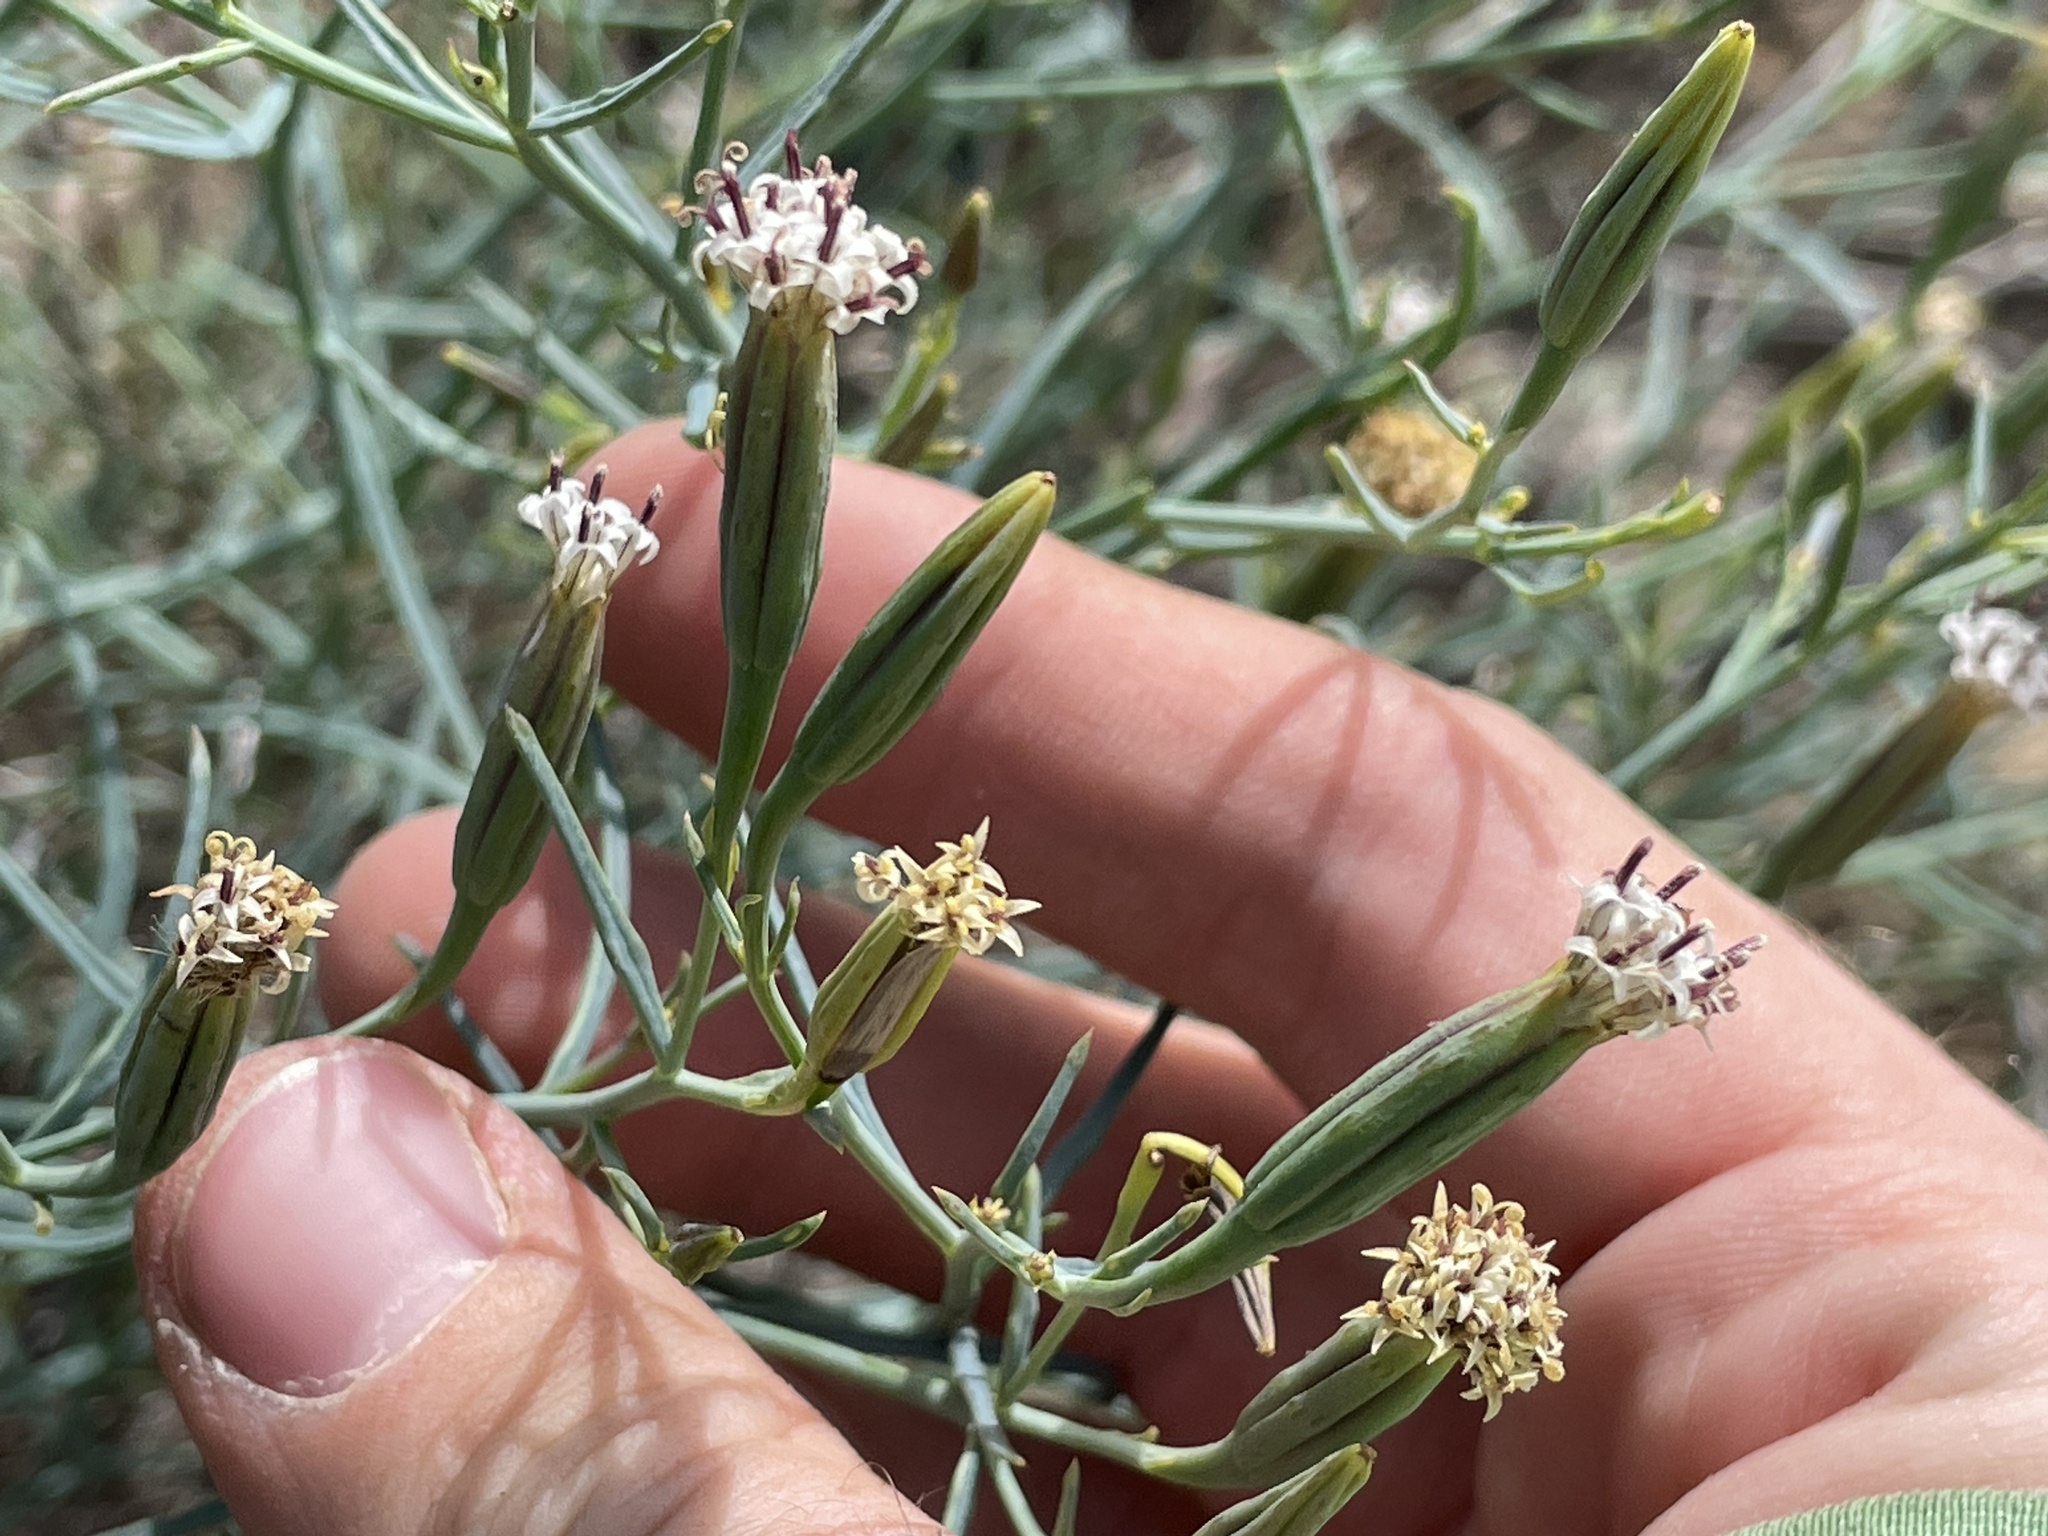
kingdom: Plantae
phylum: Tracheophyta
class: Magnoliopsida
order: Asterales
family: Asteraceae
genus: Porophyllum
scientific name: Porophyllum gracile
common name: Odora
